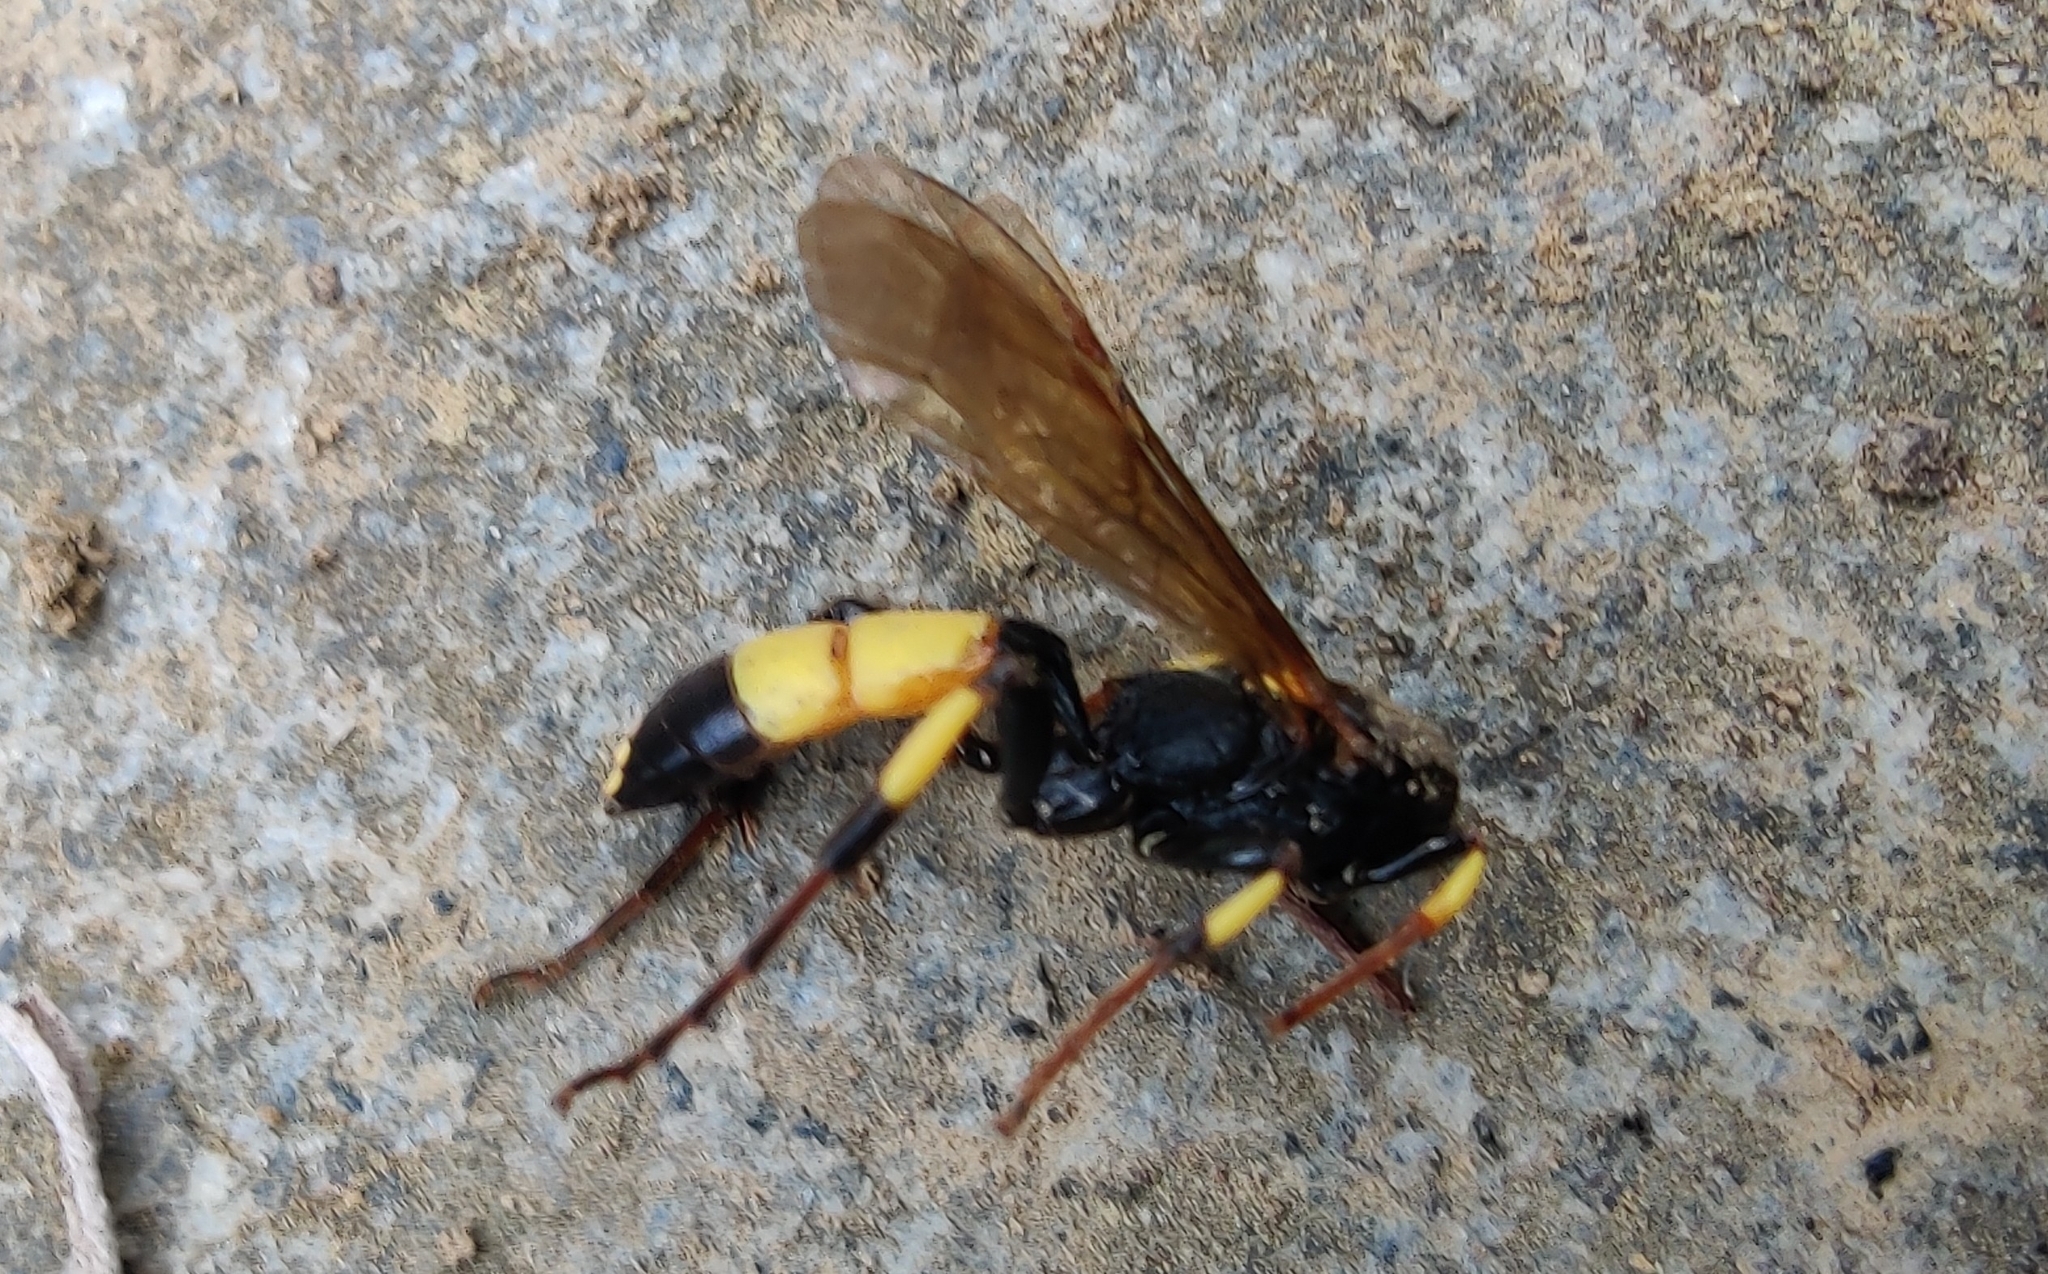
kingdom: Animalia
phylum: Arthropoda
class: Insecta
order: Hymenoptera
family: Ichneumonidae
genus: Ichneumon
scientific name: Ichneumon stramentor
